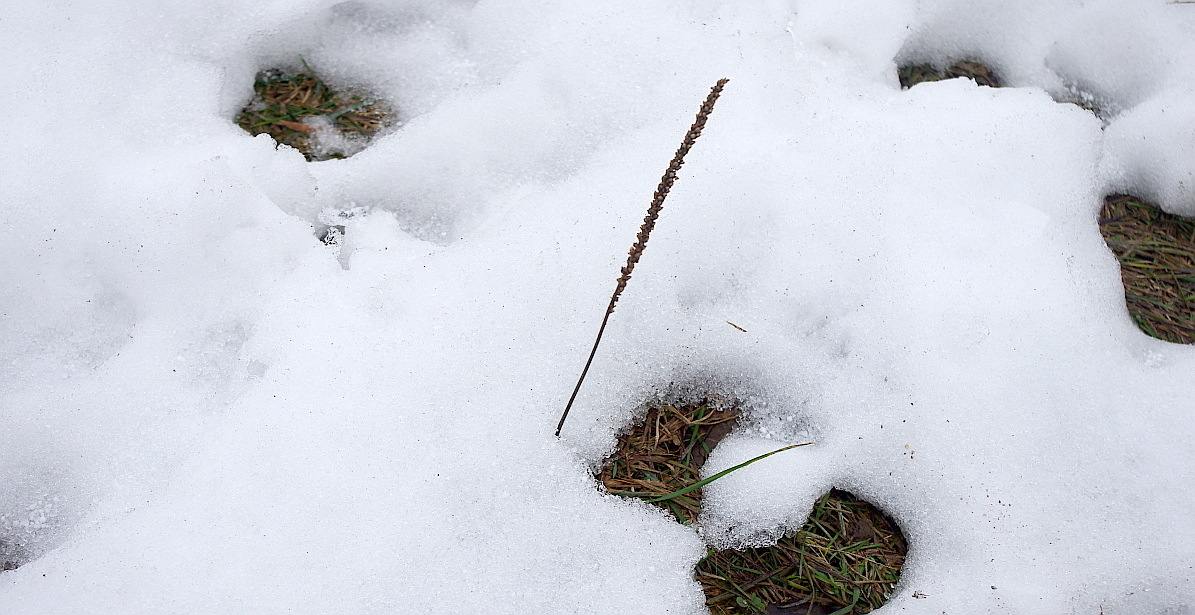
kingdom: Plantae
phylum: Tracheophyta
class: Magnoliopsida
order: Lamiales
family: Plantaginaceae
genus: Plantago
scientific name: Plantago major
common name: Common plantain
